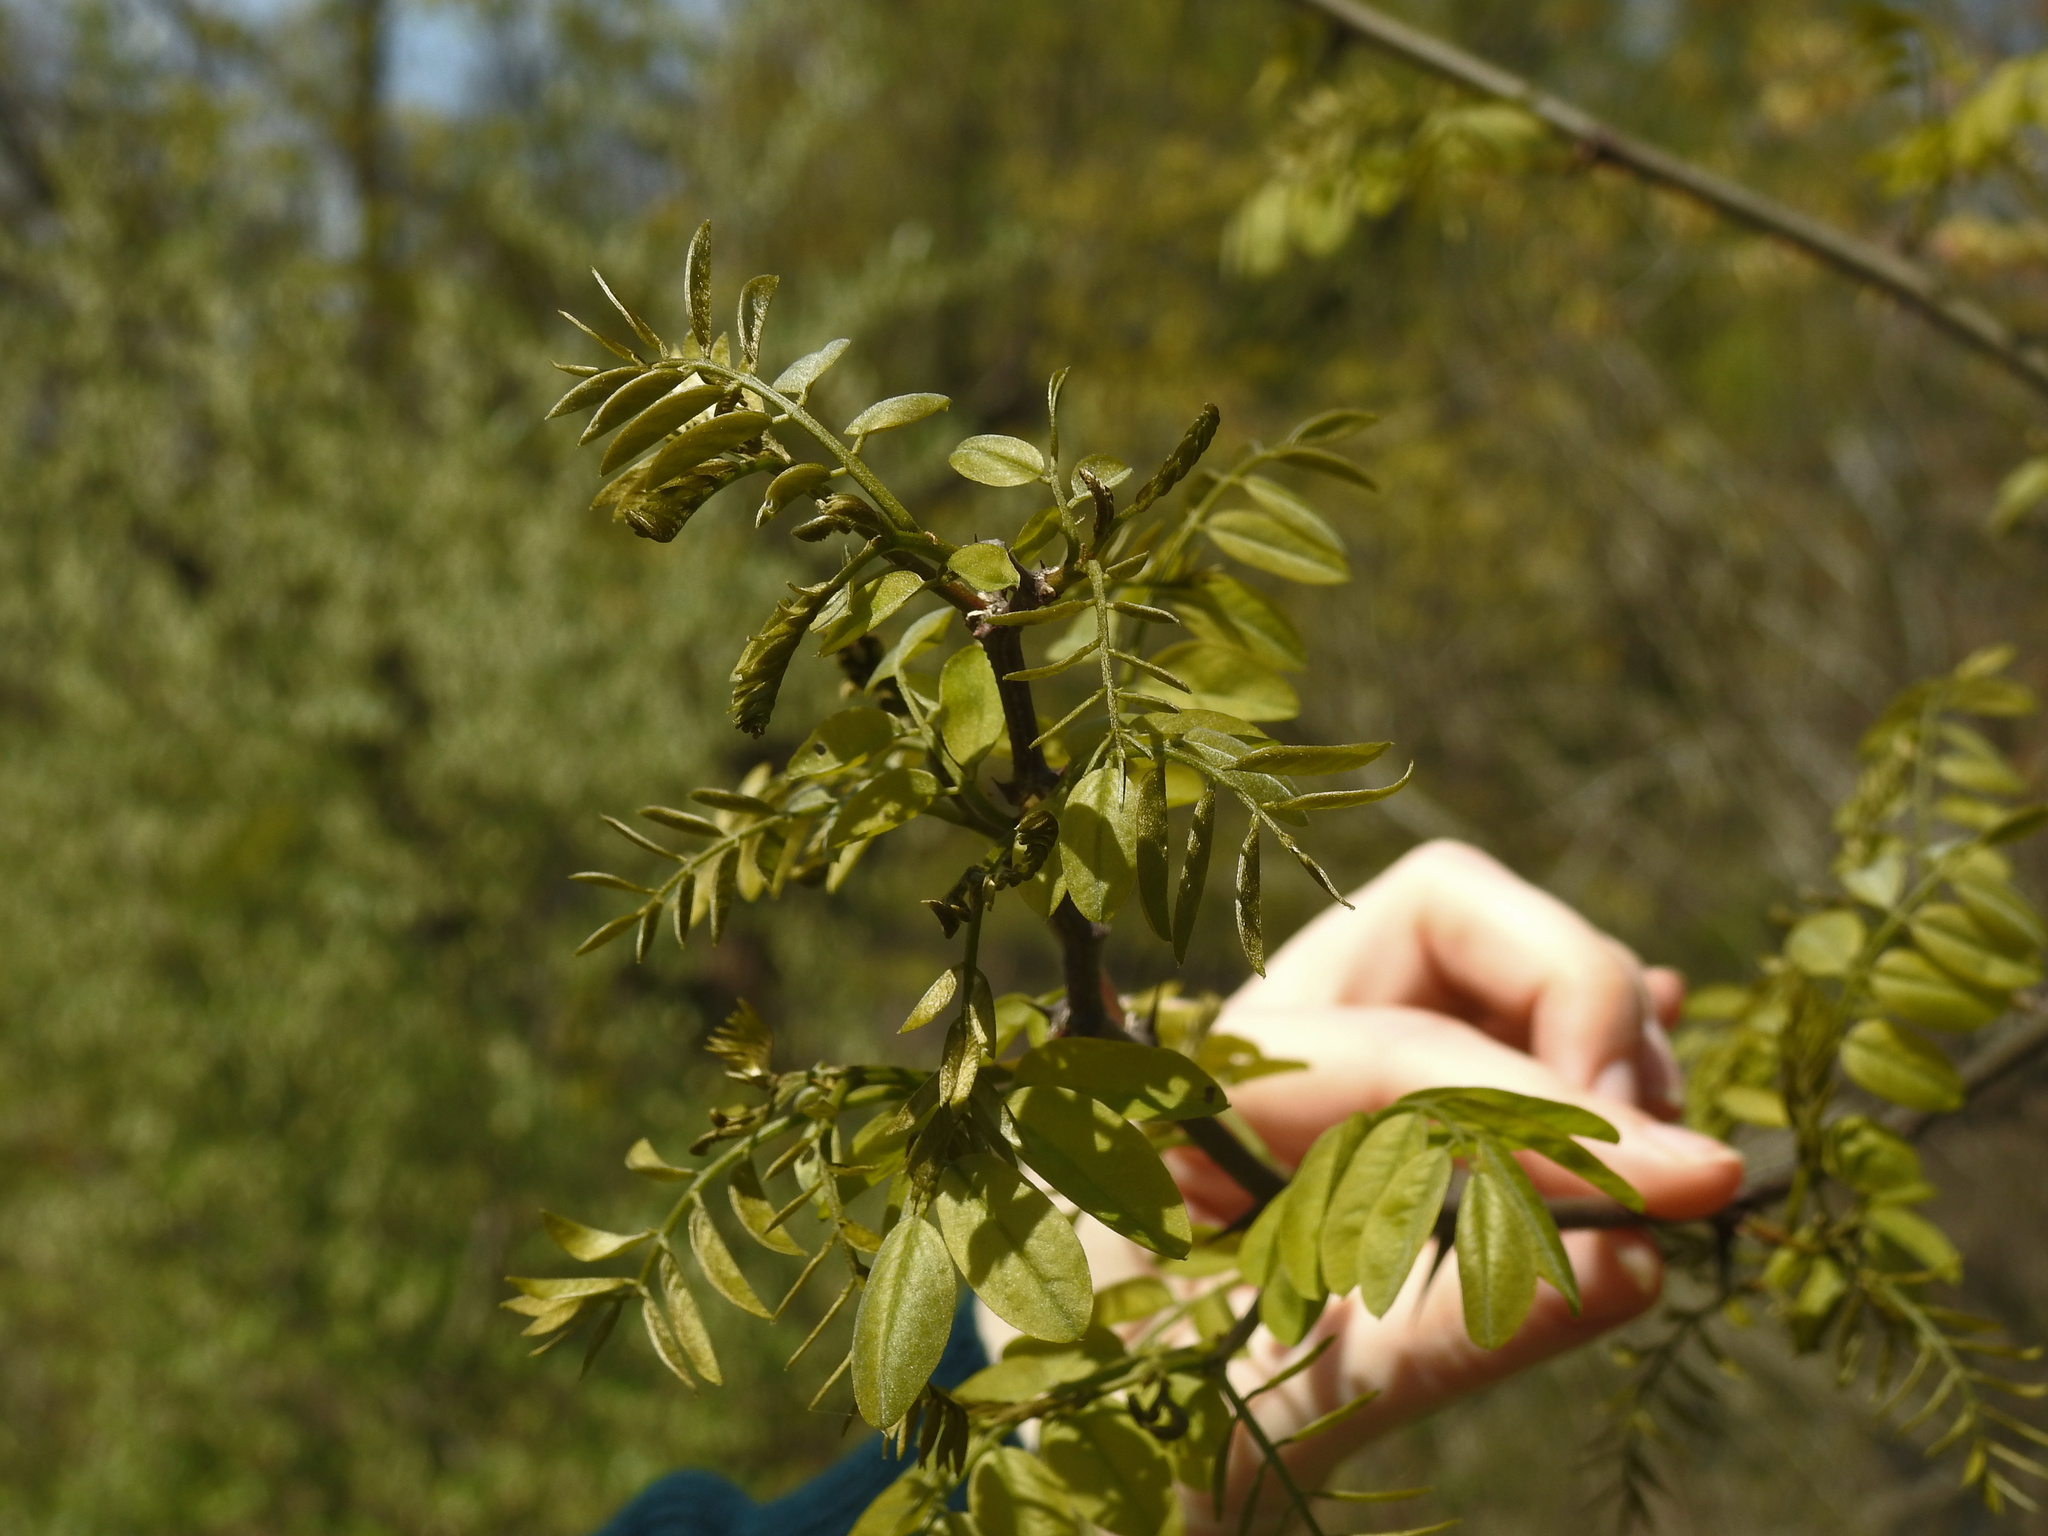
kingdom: Plantae
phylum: Tracheophyta
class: Magnoliopsida
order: Fabales
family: Fabaceae
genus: Gleditsia
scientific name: Gleditsia triacanthos
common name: Common honeylocust
